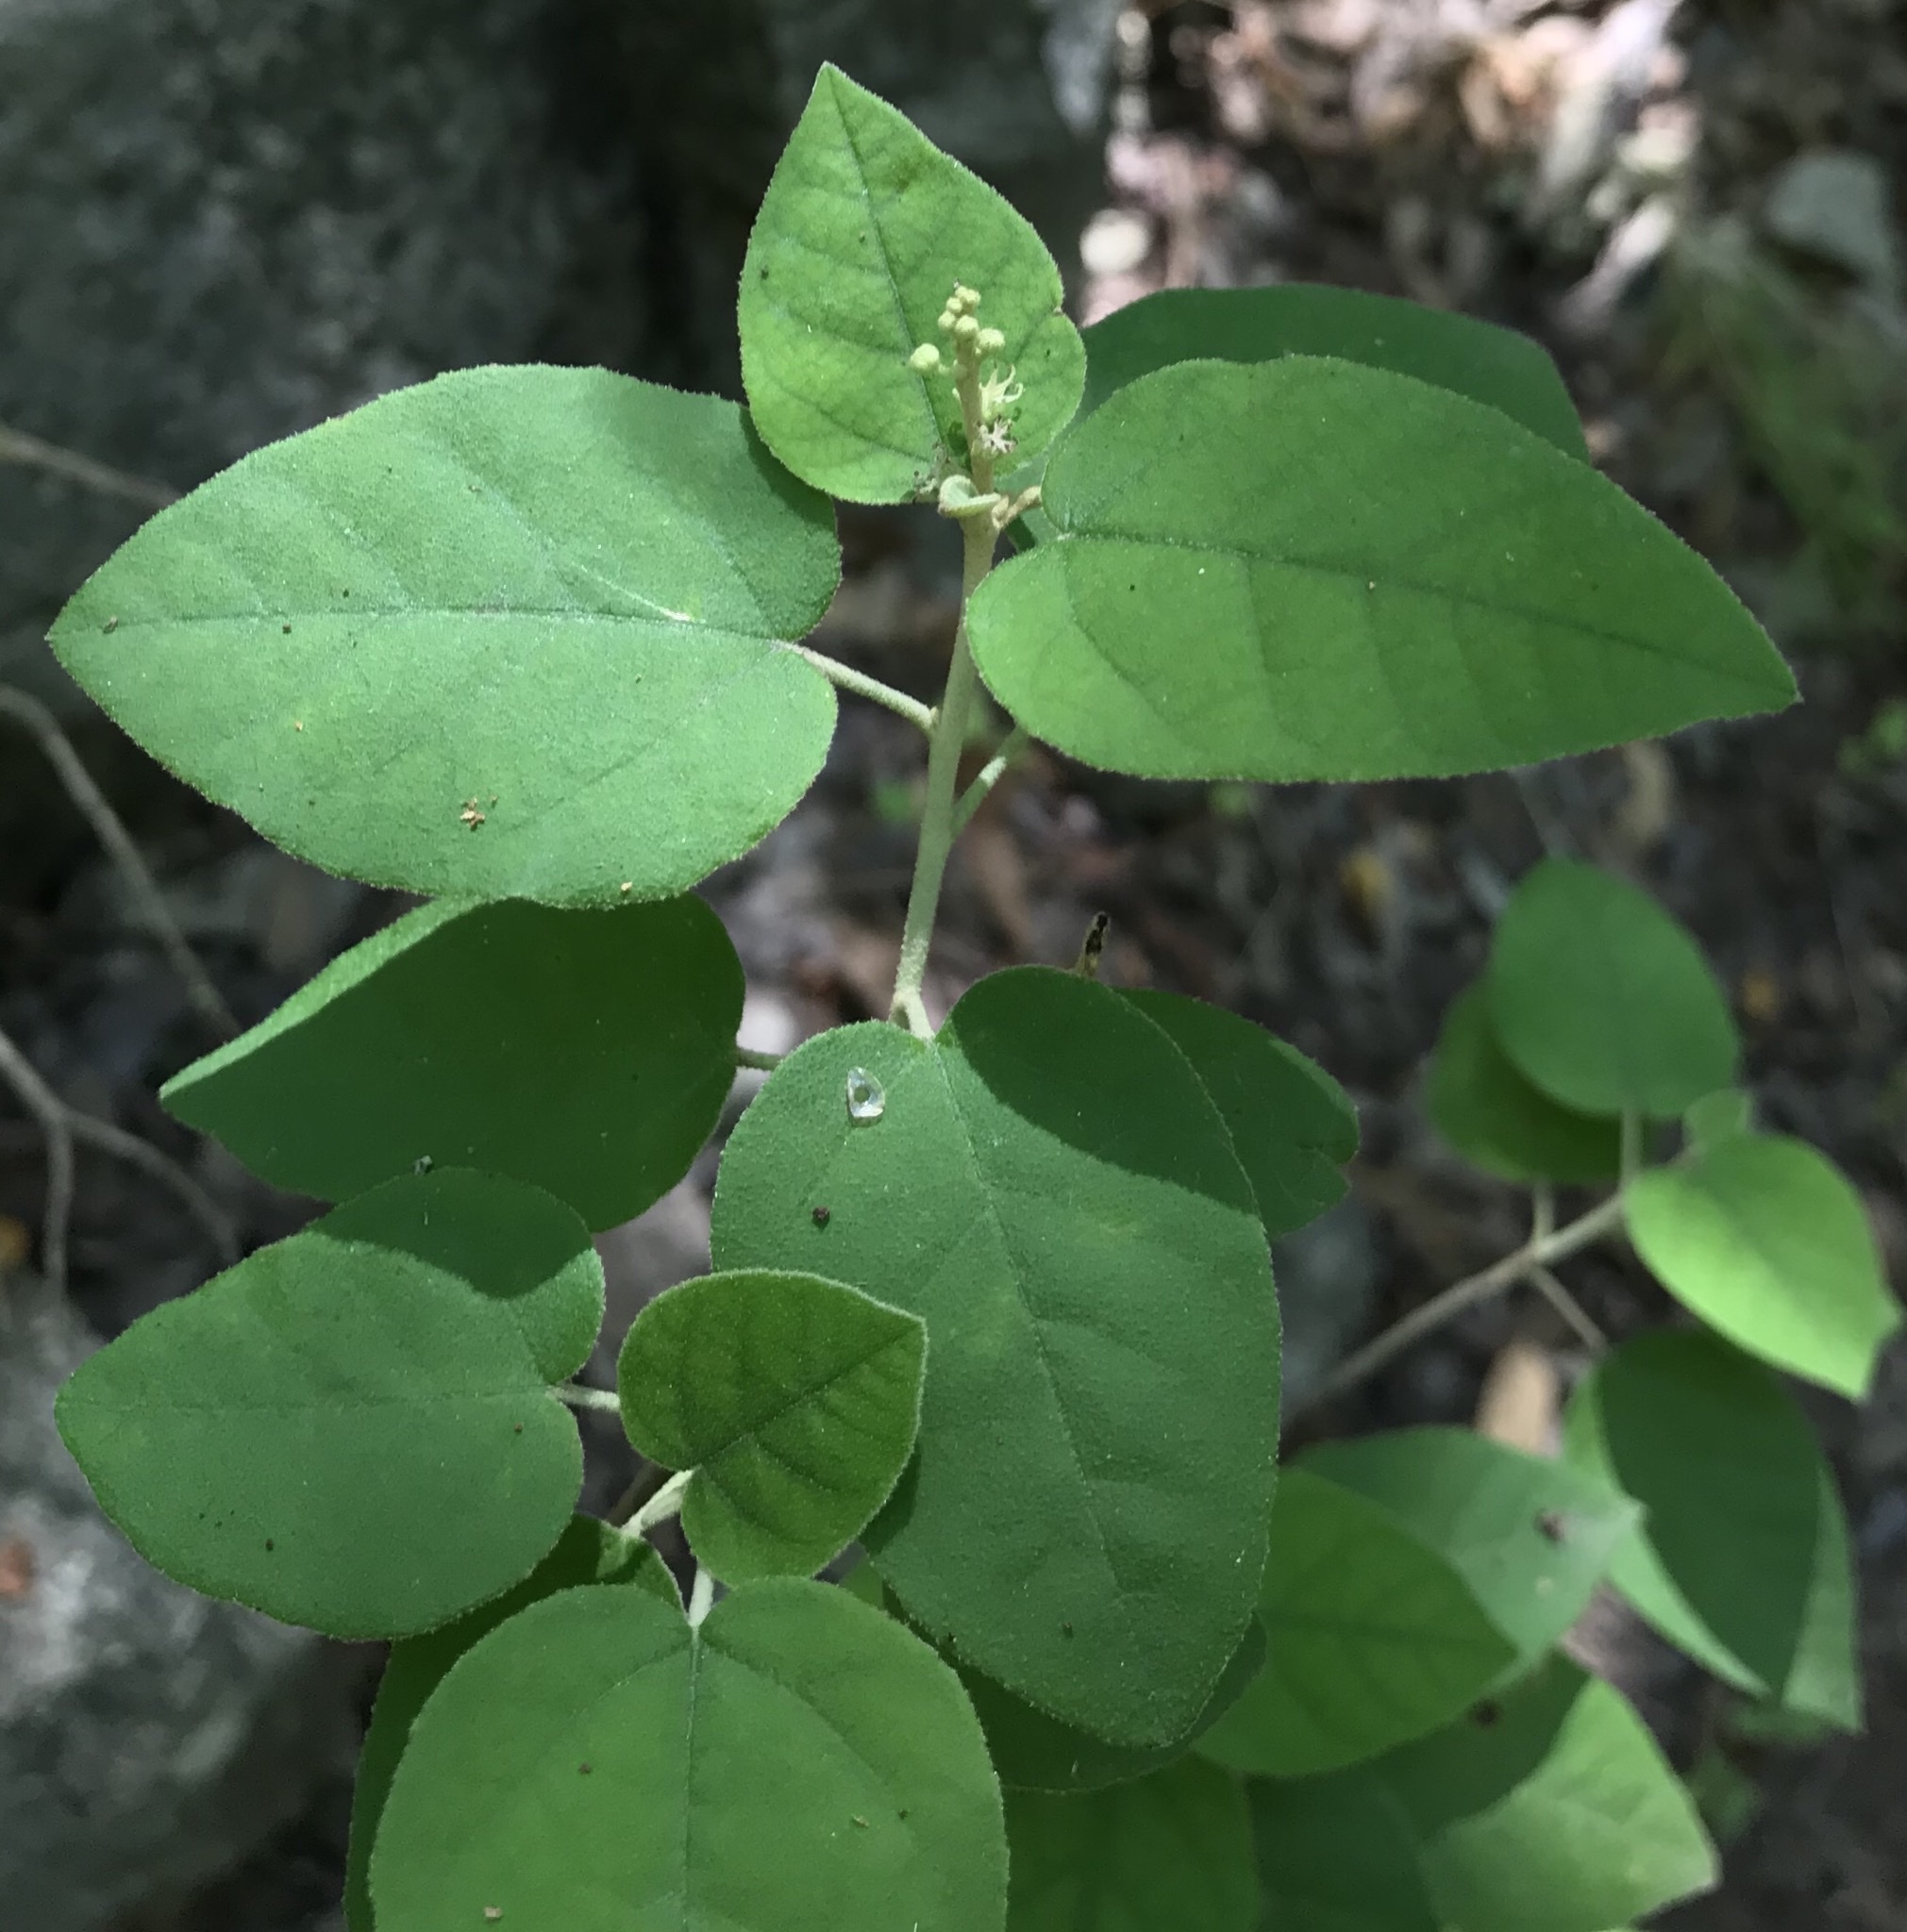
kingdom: Plantae
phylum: Tracheophyta
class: Magnoliopsida
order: Malpighiales
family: Euphorbiaceae
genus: Croton
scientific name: Croton fruticulosus
